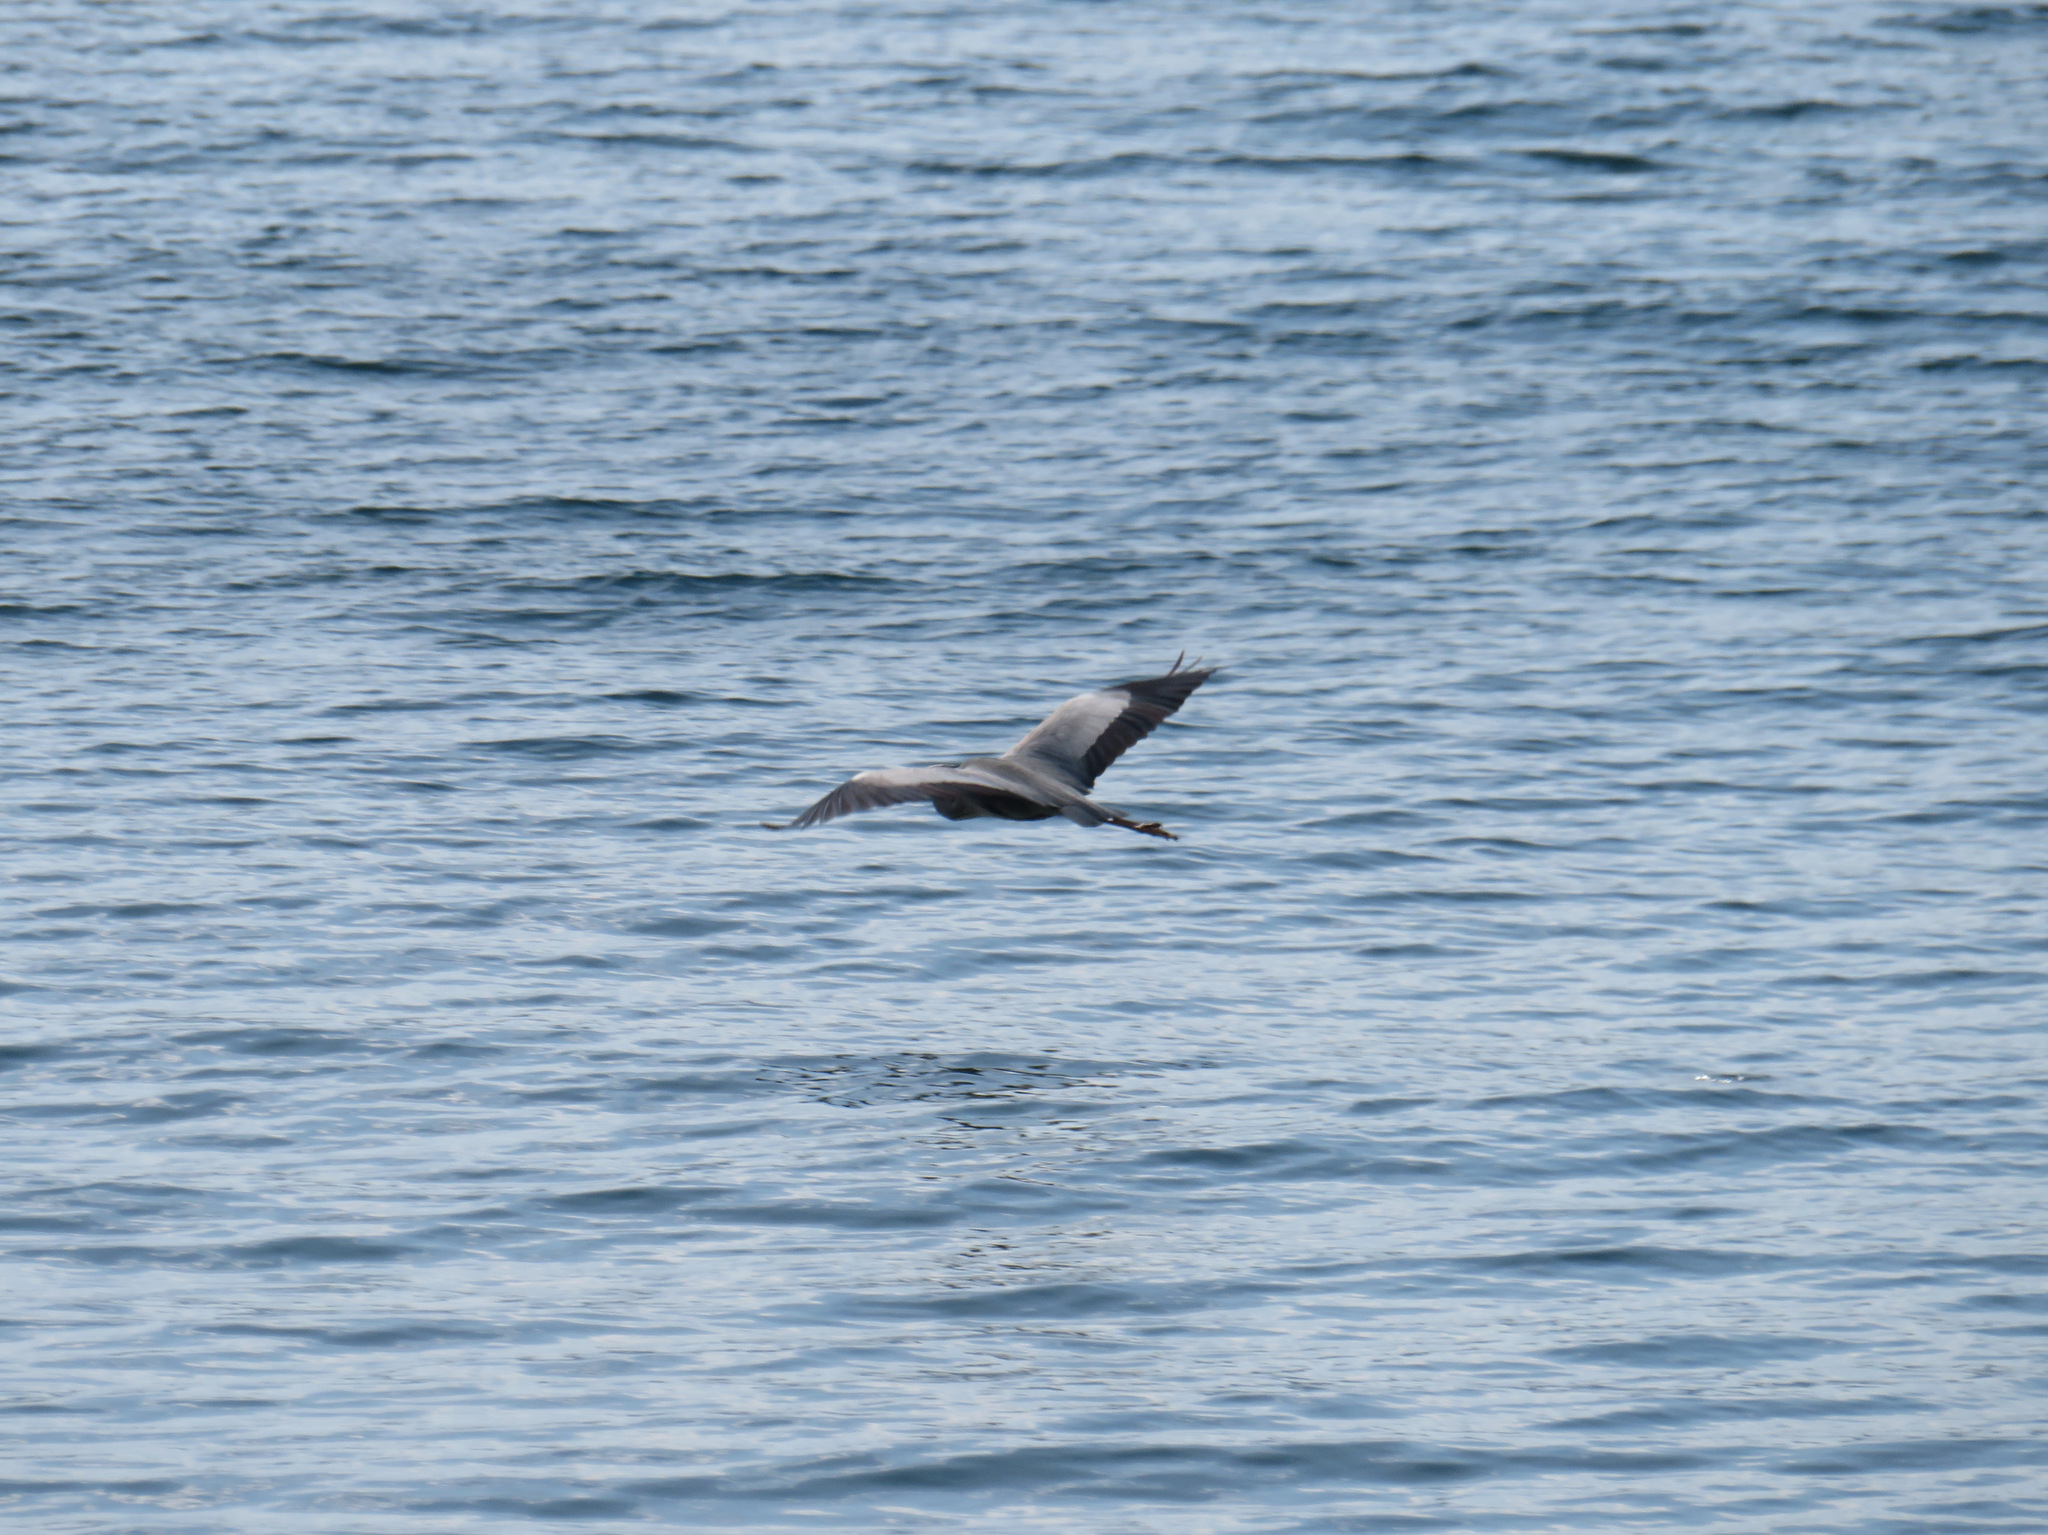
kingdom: Animalia
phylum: Chordata
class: Aves
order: Pelecaniformes
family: Ardeidae
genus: Ardea
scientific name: Ardea cinerea
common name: Grey heron
